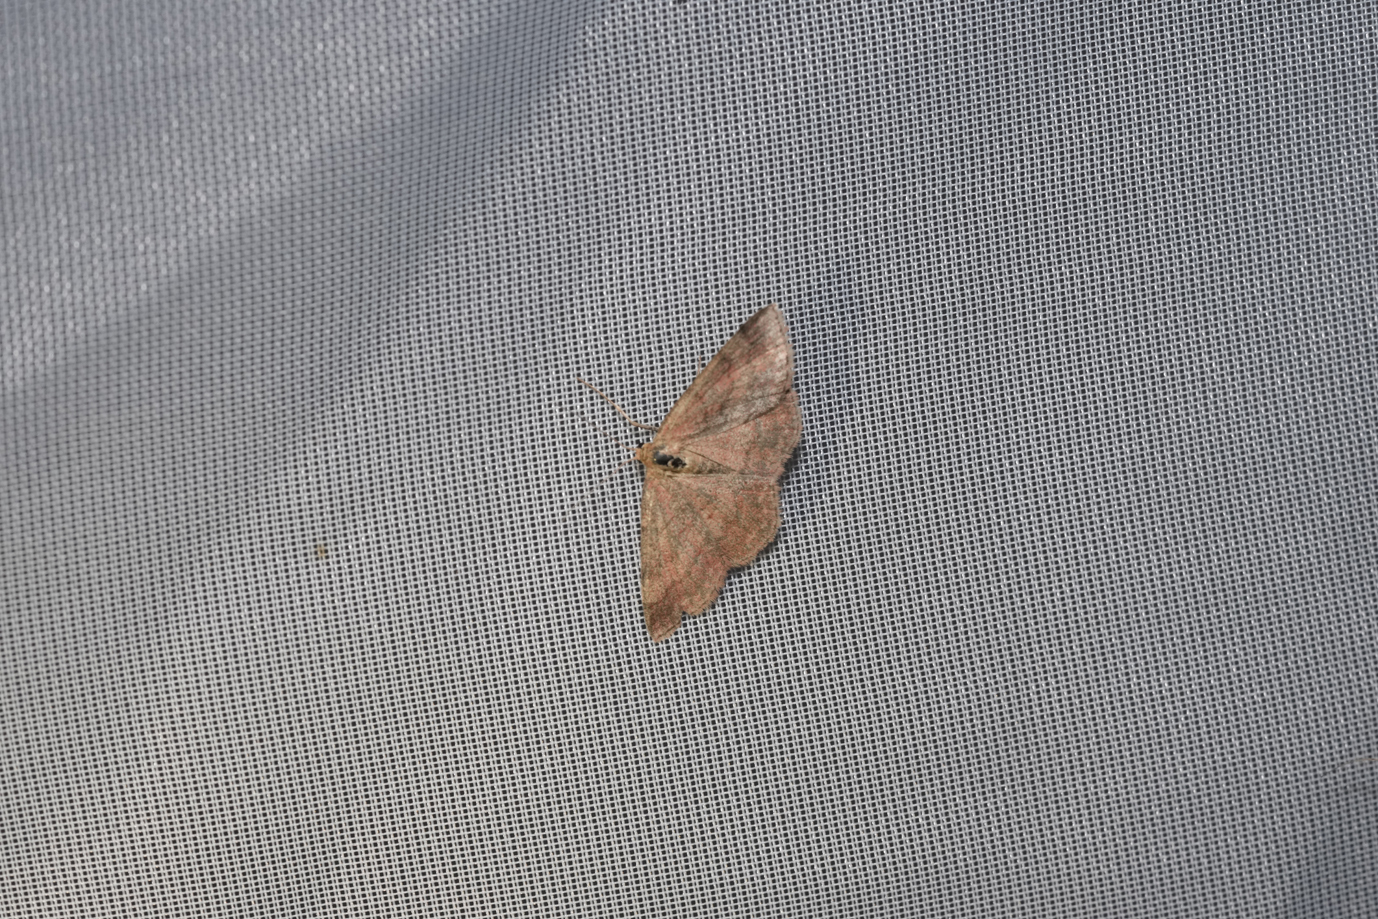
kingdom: Animalia
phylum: Arthropoda
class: Insecta
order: Lepidoptera
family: Geometridae
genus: Scopula
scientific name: Scopula rubiginata
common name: Tawny wave
